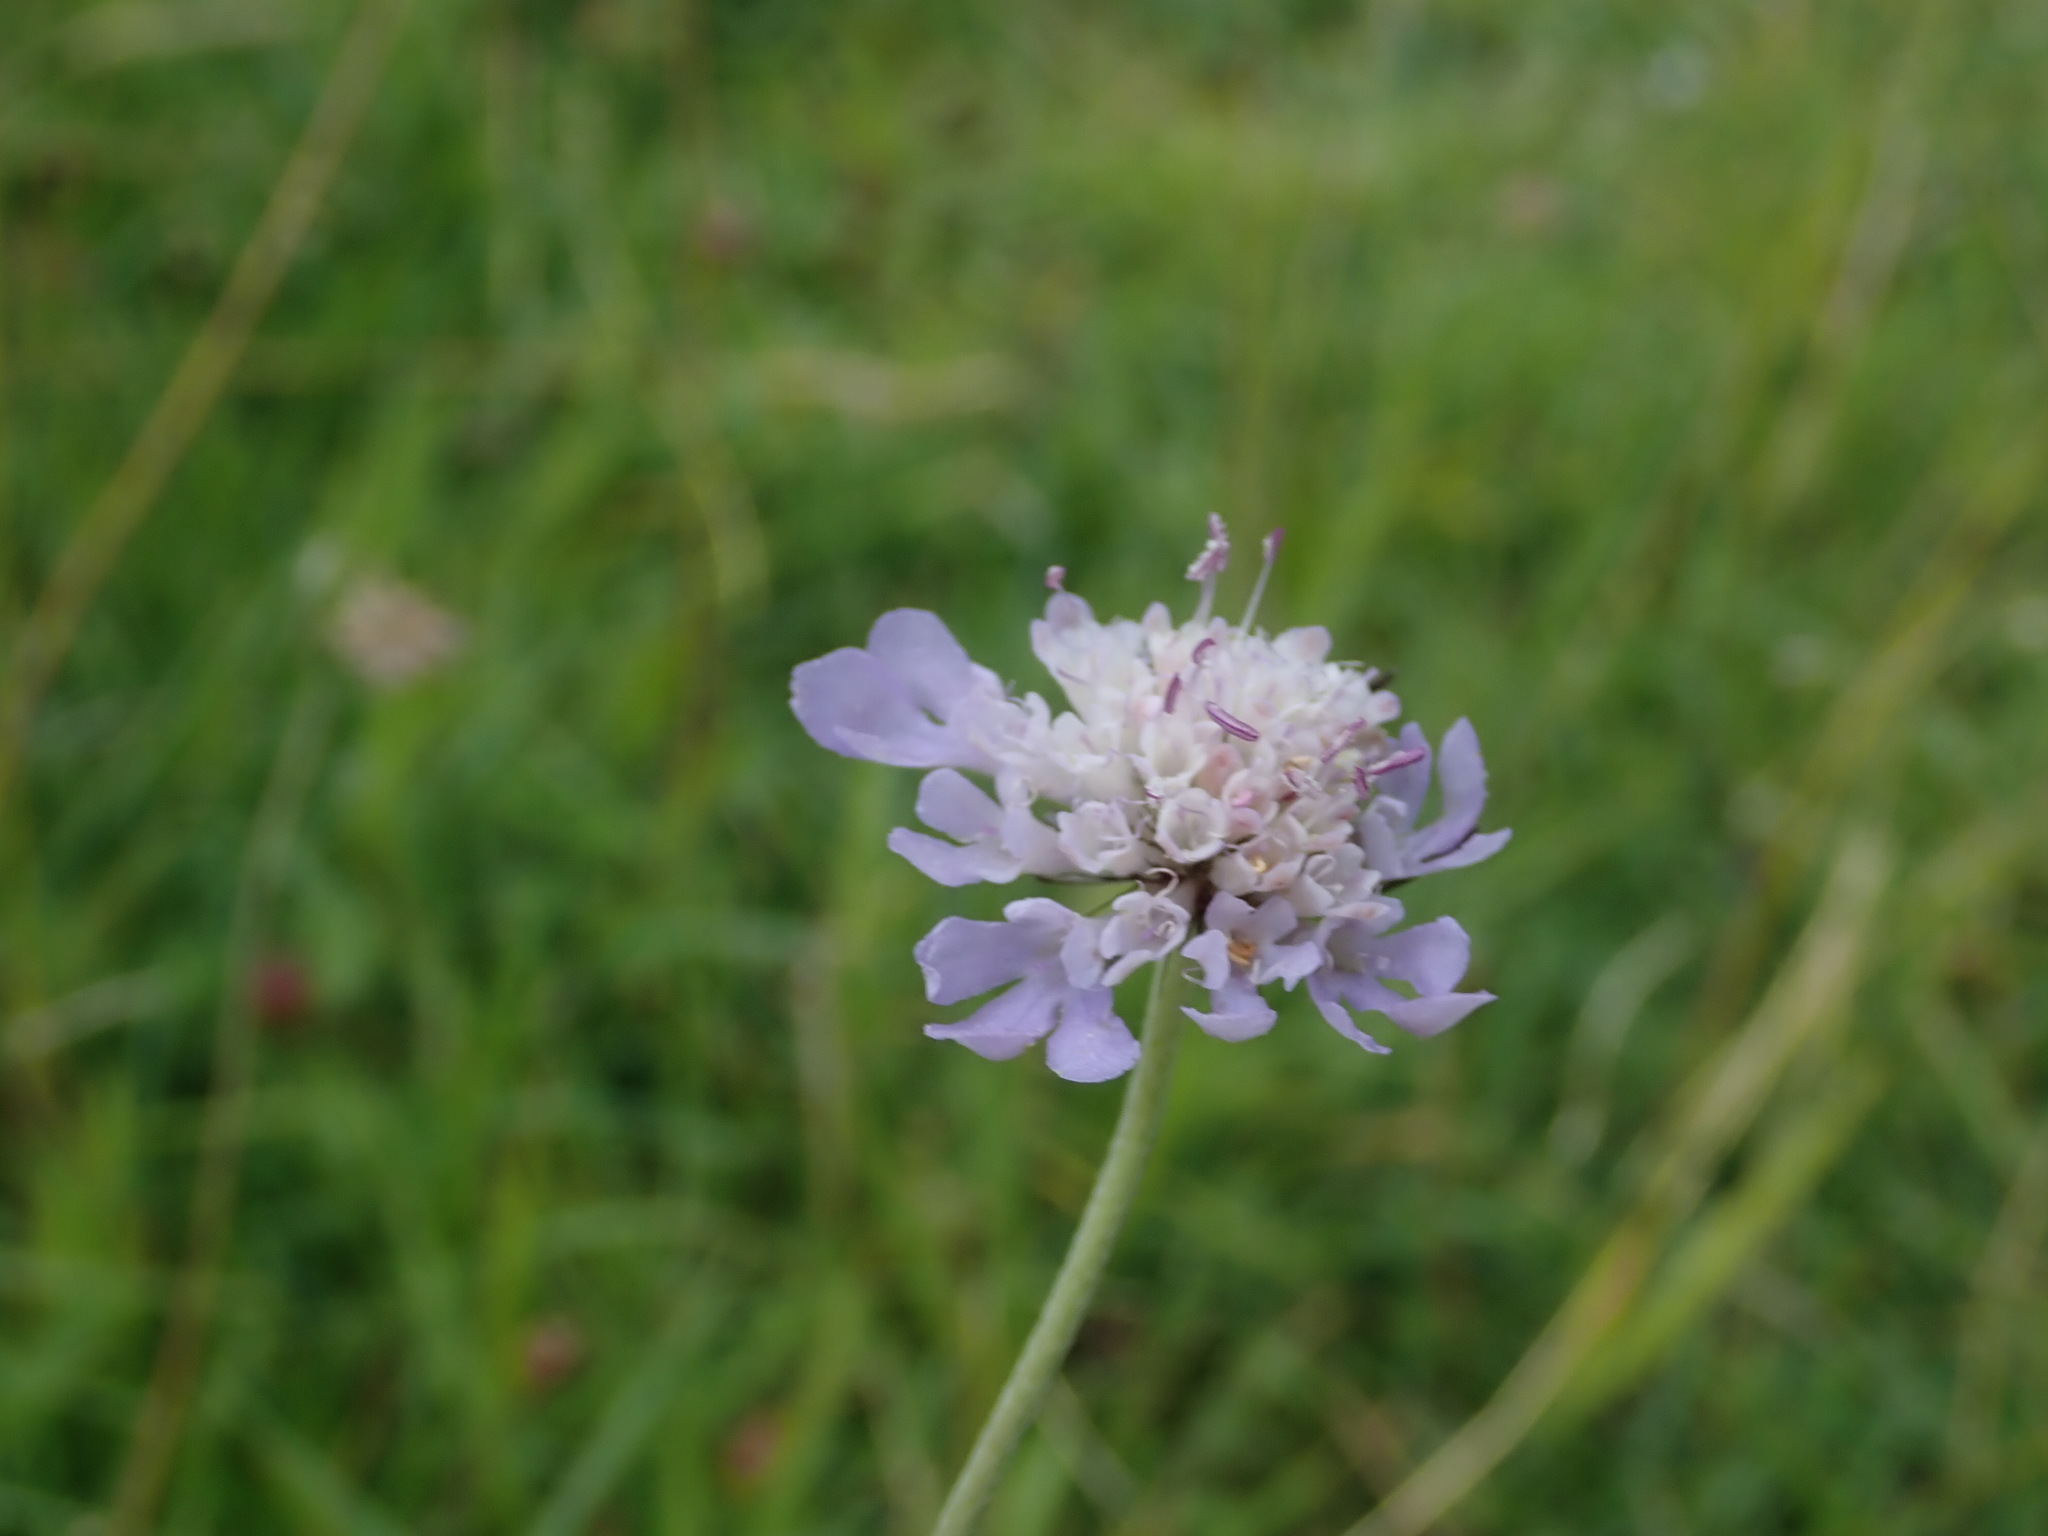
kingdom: Plantae
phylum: Tracheophyta
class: Magnoliopsida
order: Dipsacales
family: Caprifoliaceae
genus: Scabiosa
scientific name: Scabiosa columbaria
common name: Small scabious
